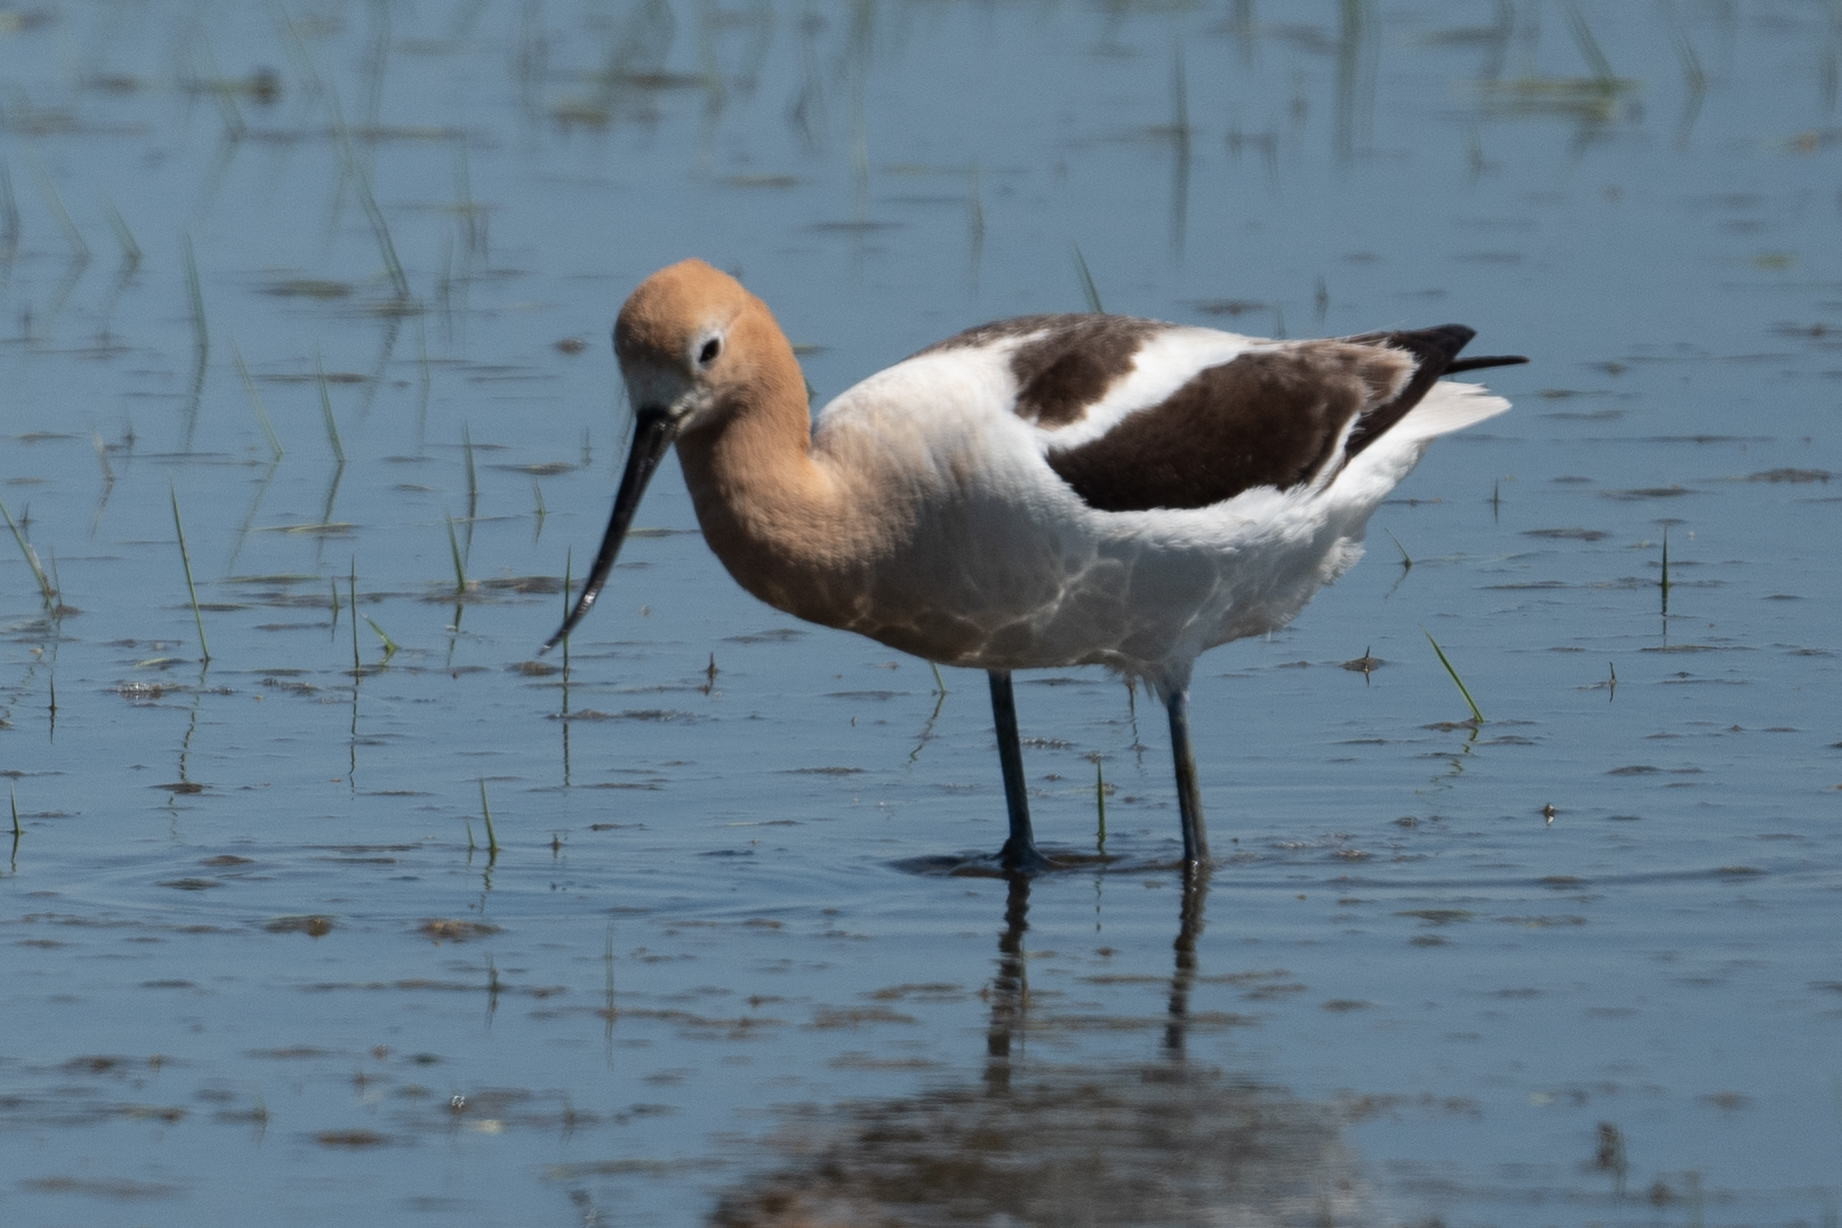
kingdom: Animalia
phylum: Chordata
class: Aves
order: Charadriiformes
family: Recurvirostridae
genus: Recurvirostra
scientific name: Recurvirostra americana
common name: American avocet
